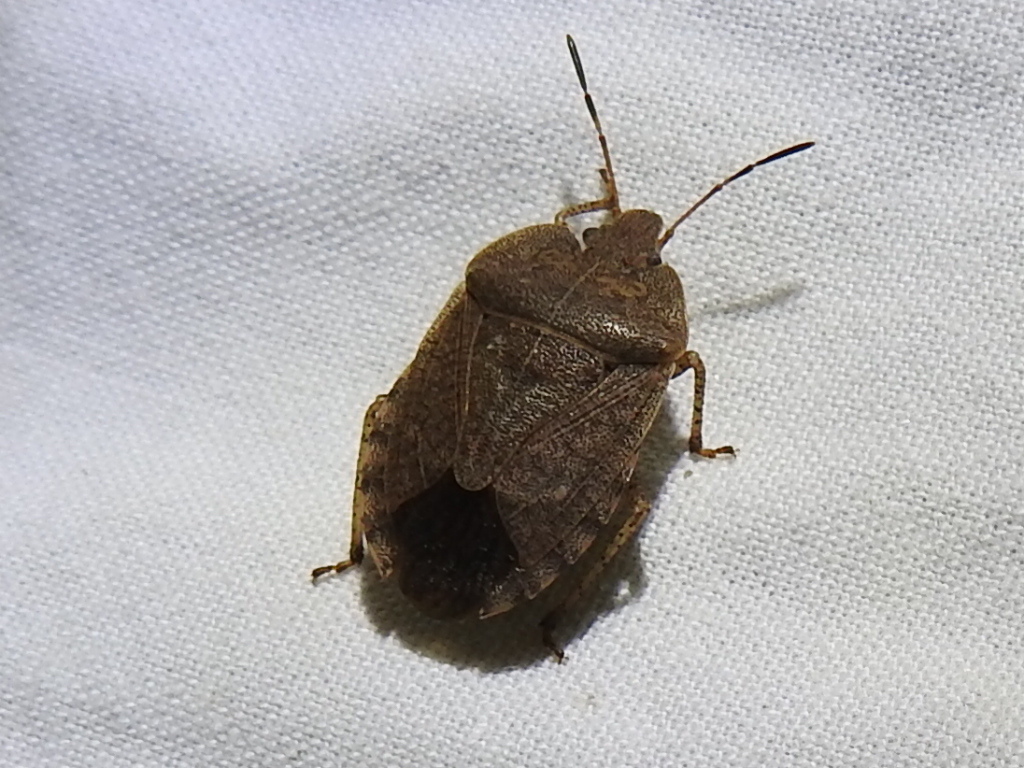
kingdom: Animalia
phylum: Arthropoda
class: Insecta
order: Hemiptera
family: Pentatomidae
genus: Menecles
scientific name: Menecles insertus
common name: Elf shoe stink bug
